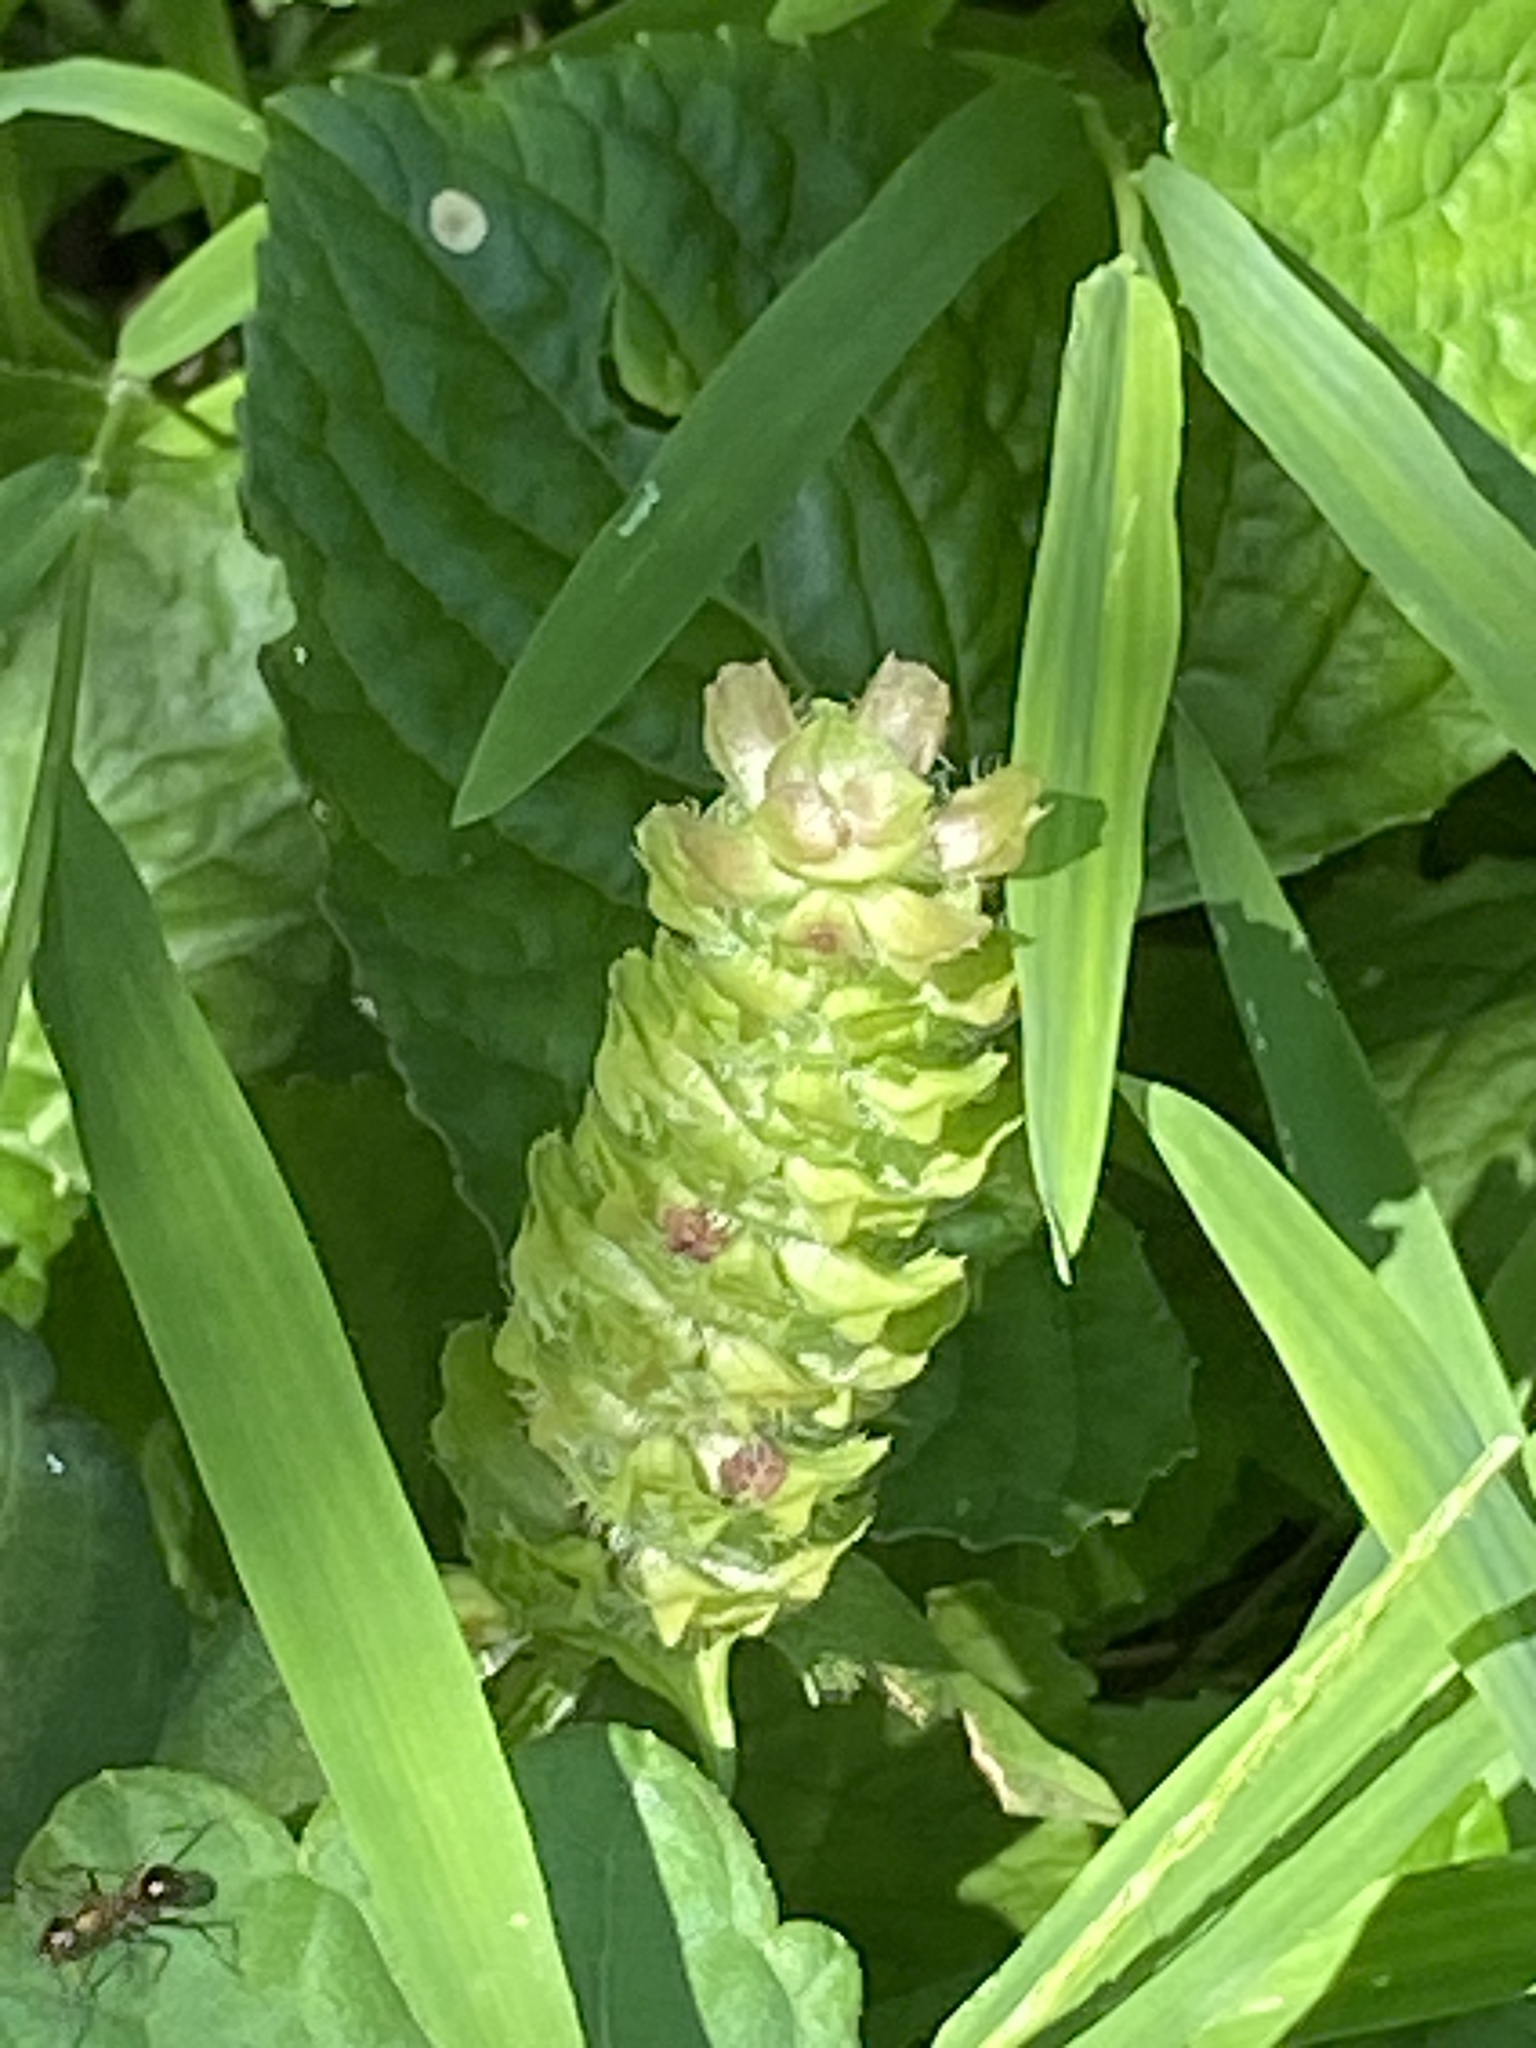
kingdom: Plantae
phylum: Tracheophyta
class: Magnoliopsida
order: Lamiales
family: Lamiaceae
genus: Prunella
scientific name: Prunella vulgaris
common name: Heal-all
